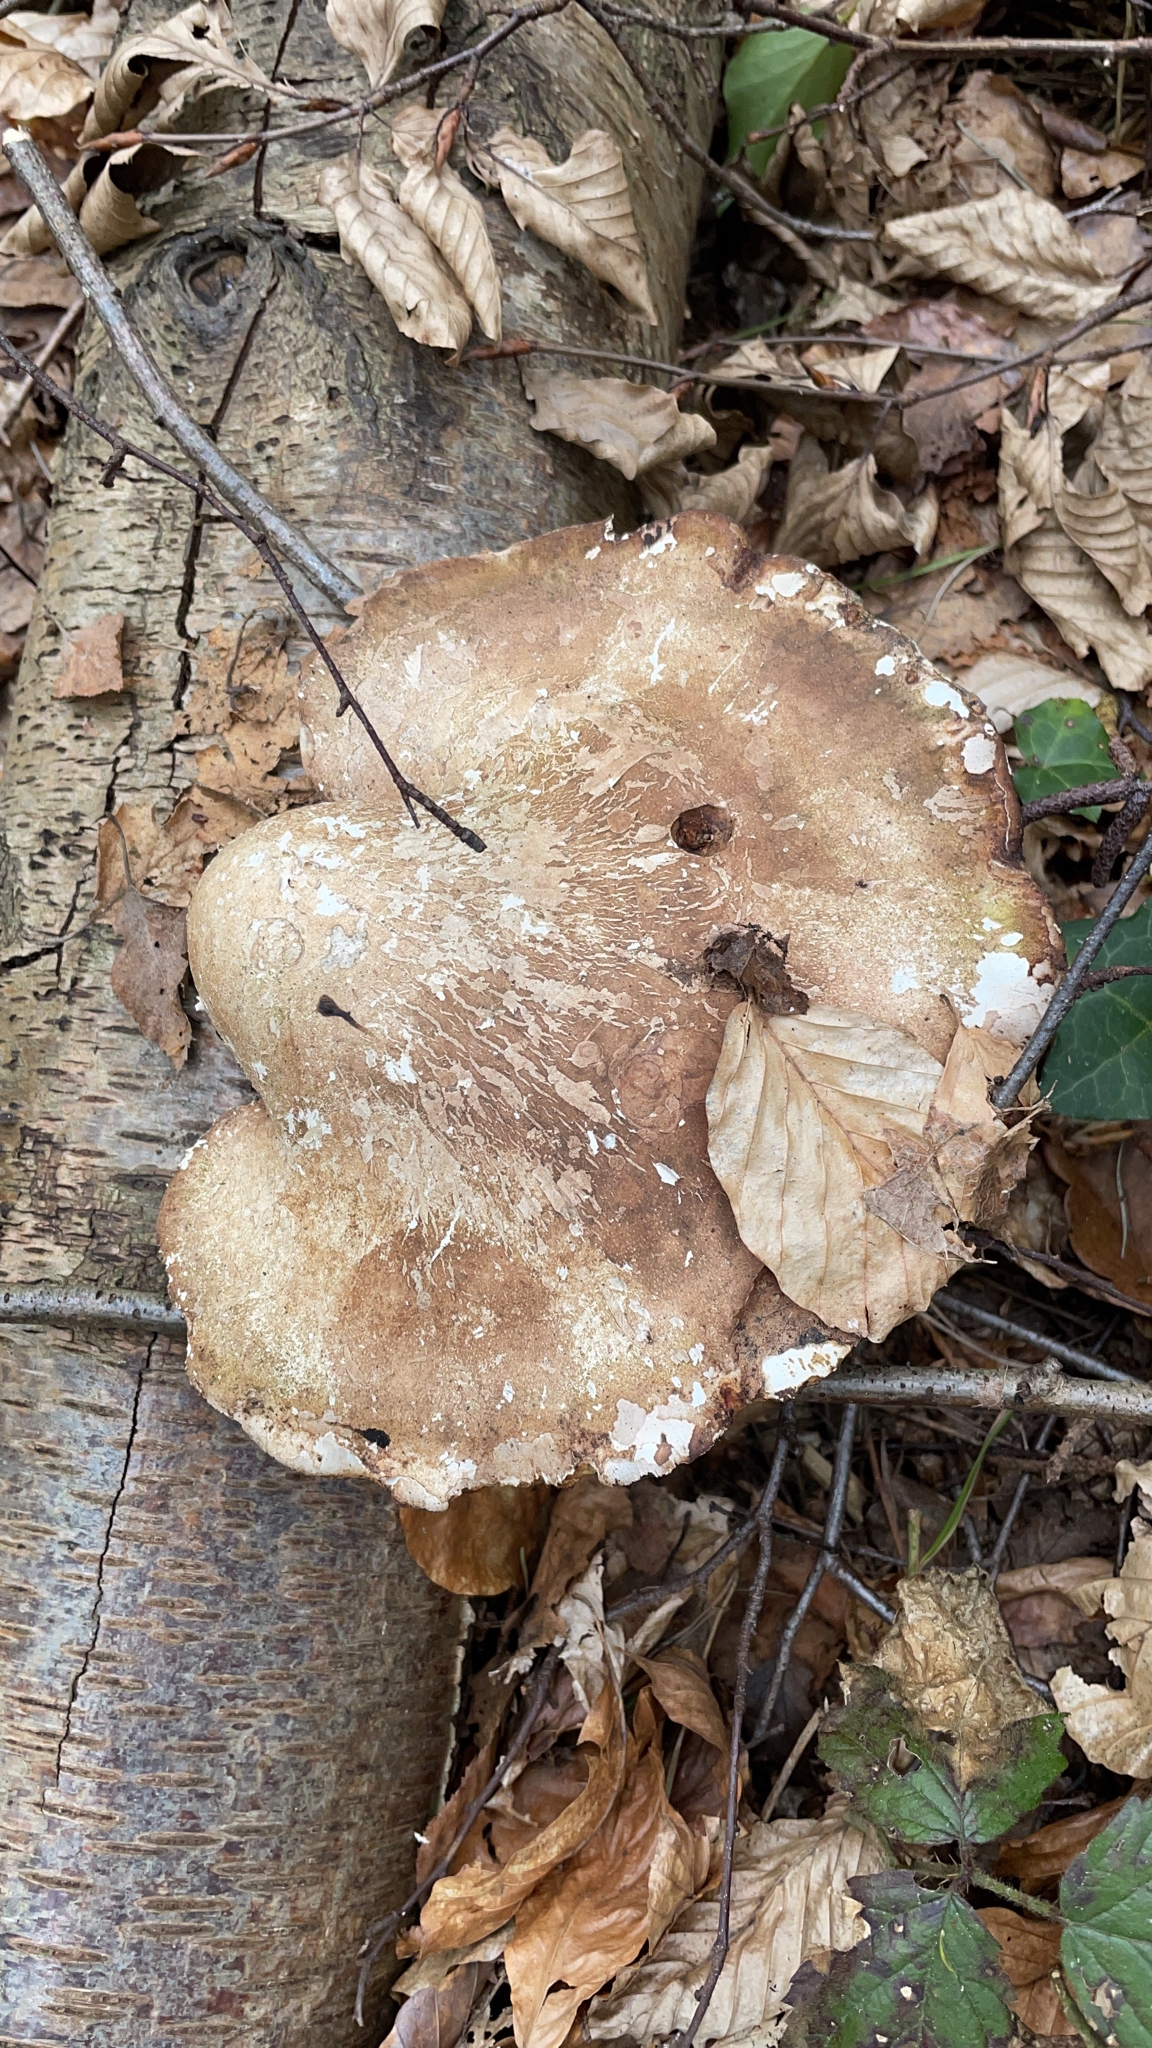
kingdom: Fungi
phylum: Basidiomycota
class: Agaricomycetes
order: Polyporales
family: Fomitopsidaceae
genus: Fomitopsis
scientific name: Fomitopsis betulina
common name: Birch polypore
